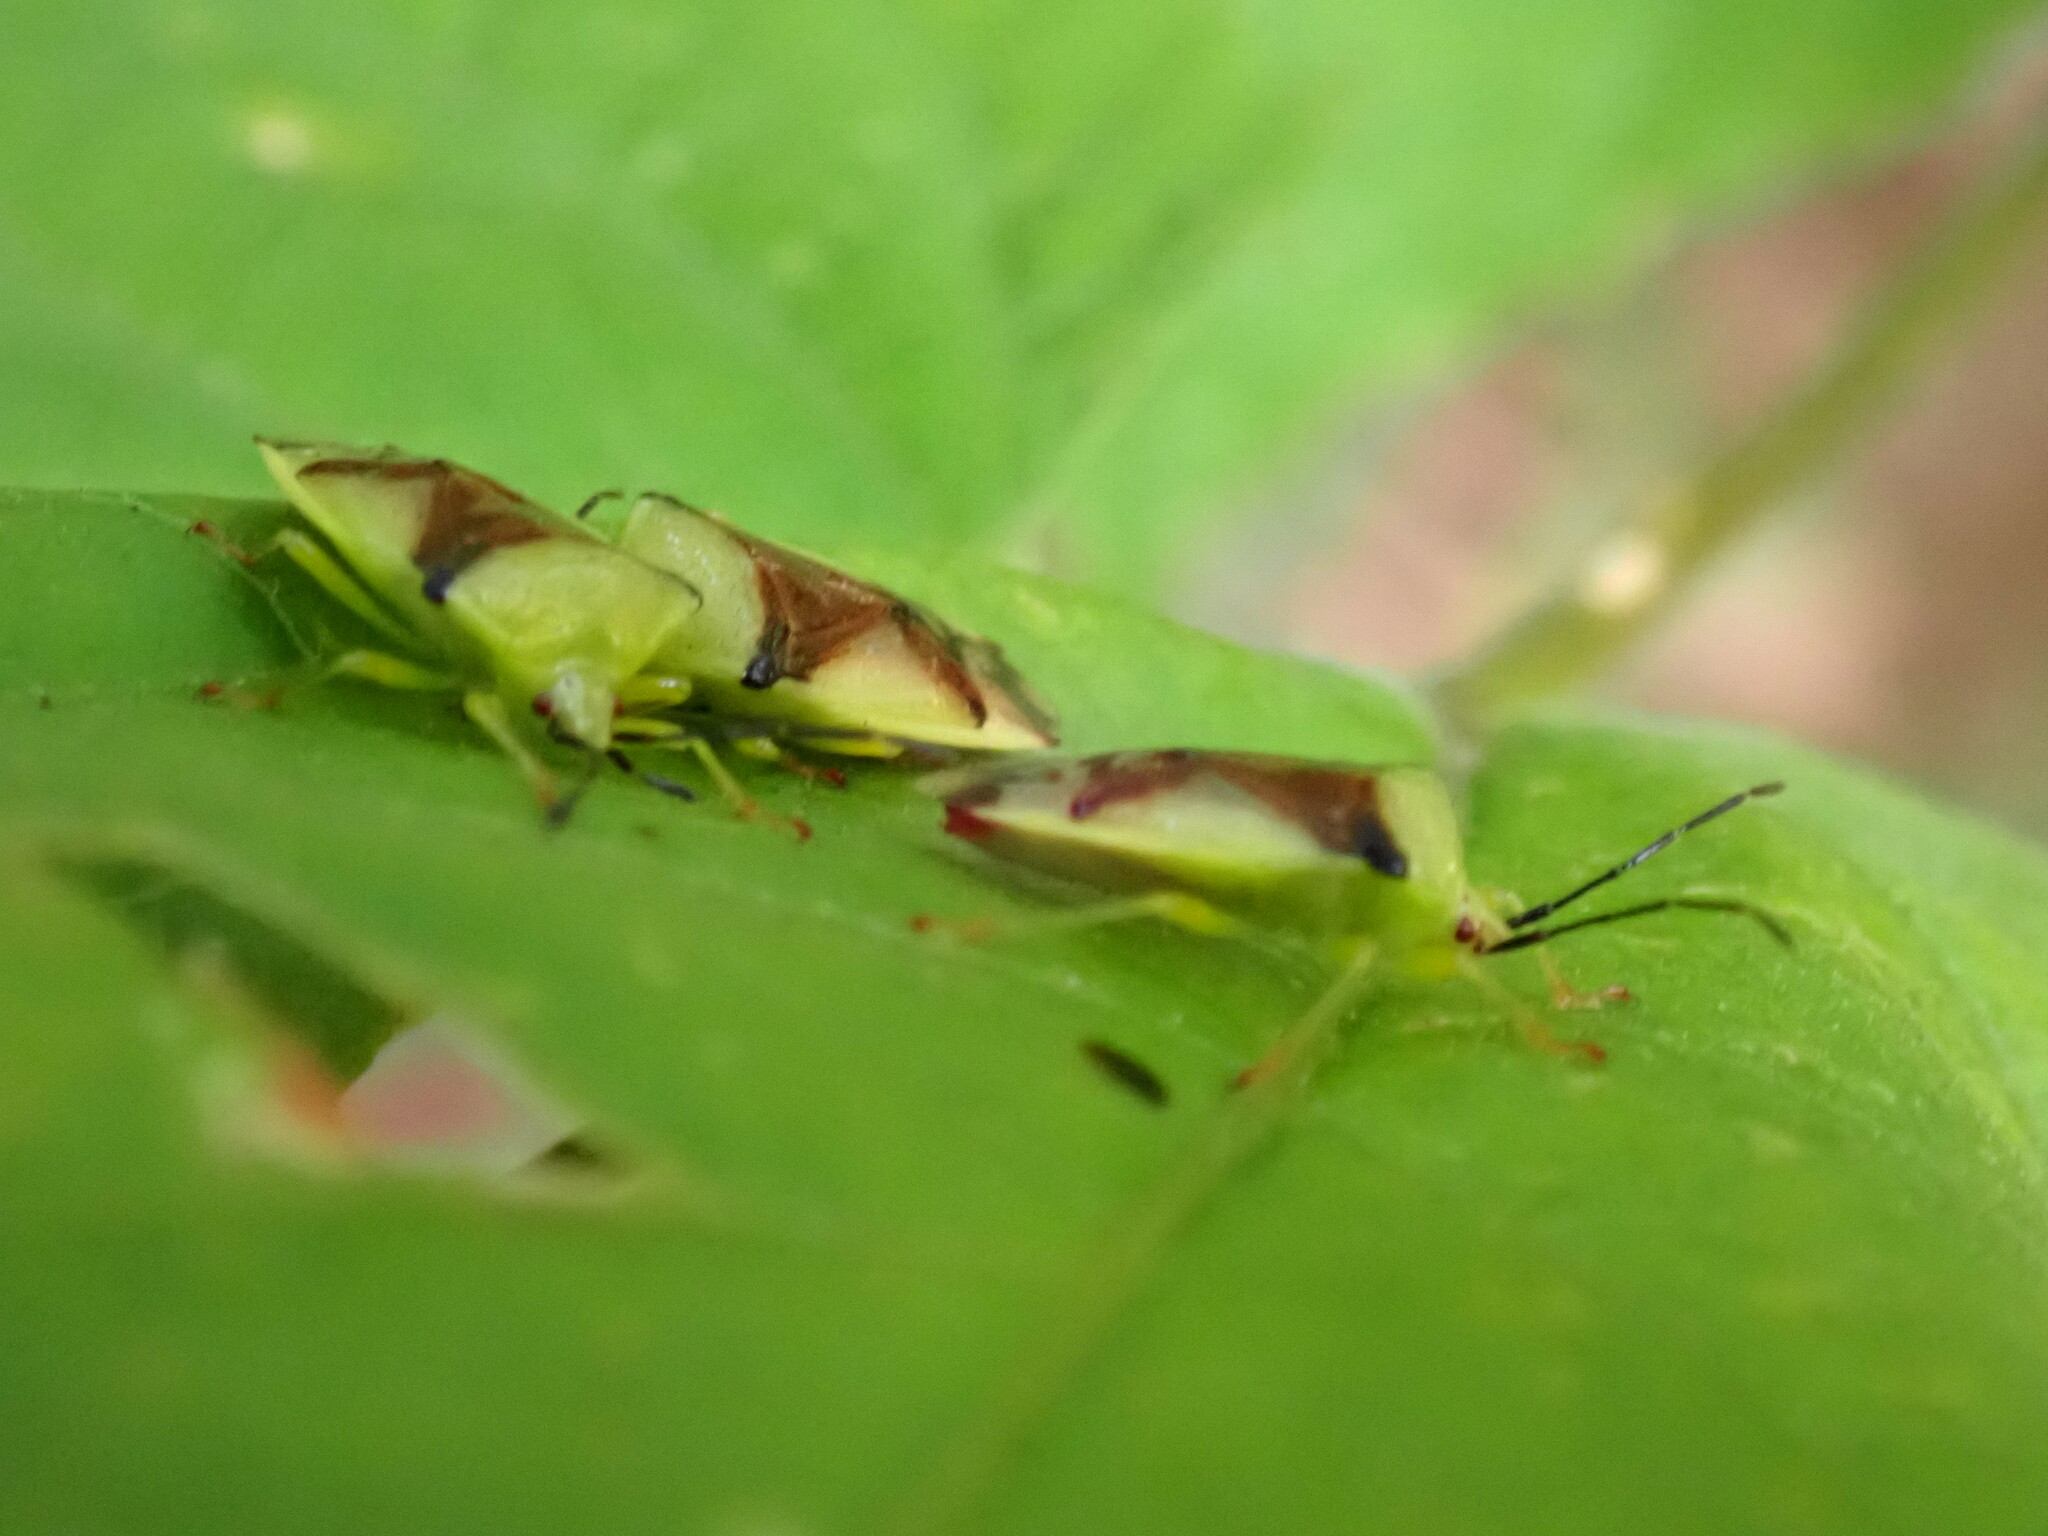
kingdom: Animalia
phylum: Arthropoda
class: Insecta
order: Hemiptera
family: Acanthosomatidae
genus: Elasmostethus
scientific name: Elasmostethus atricornis
